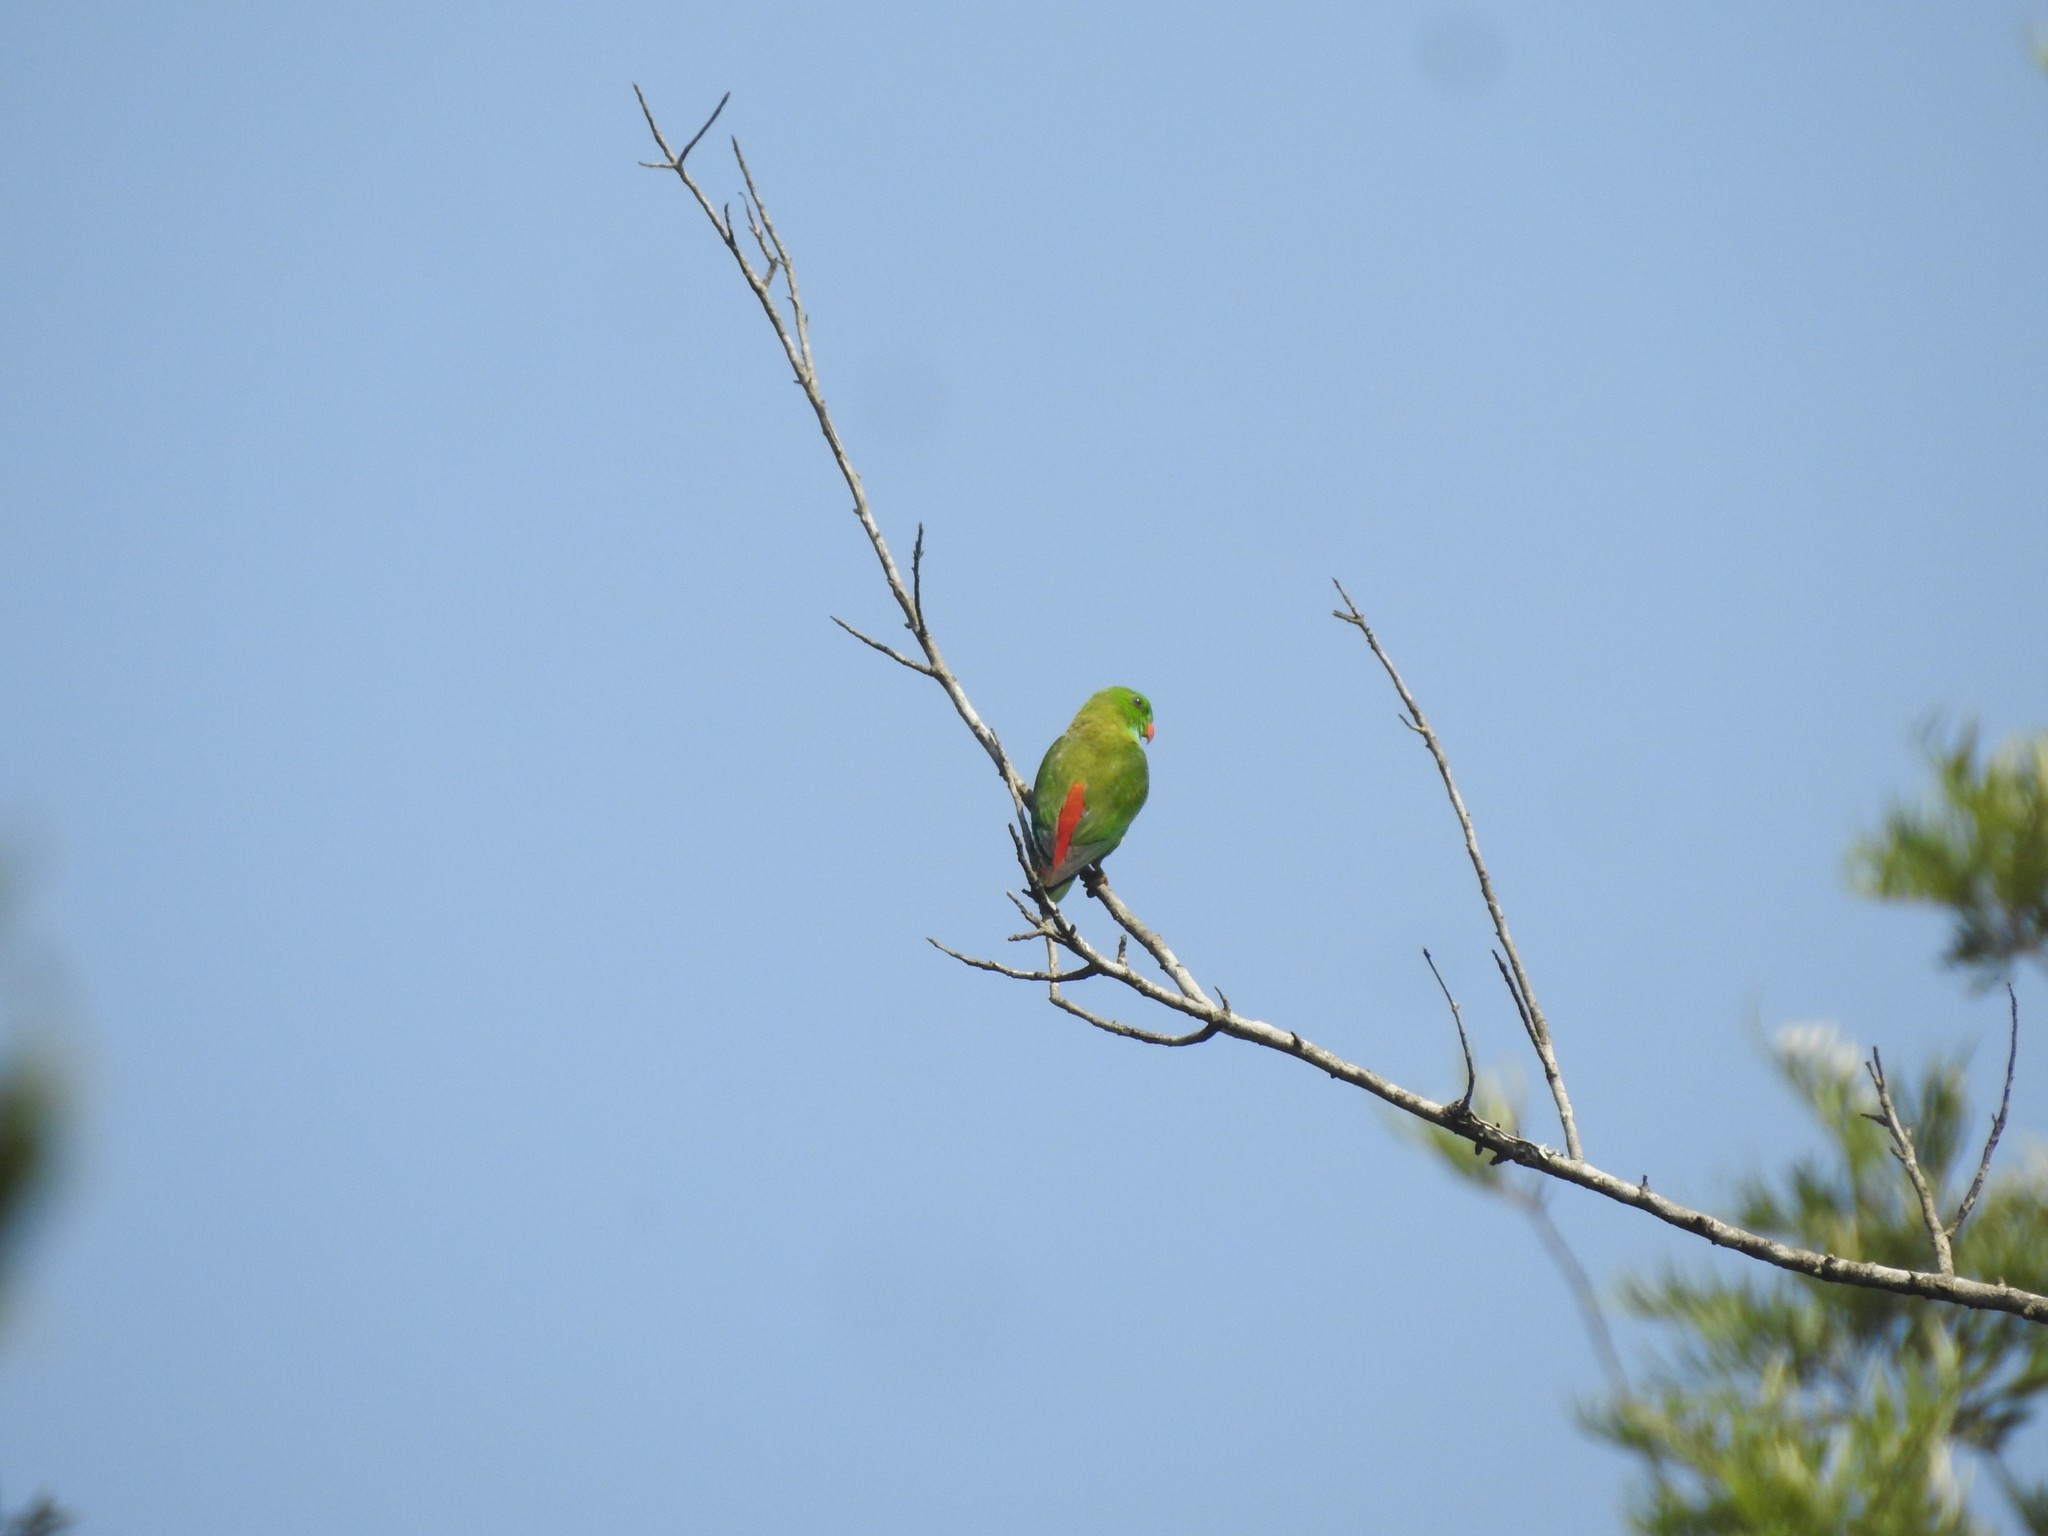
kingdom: Animalia
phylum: Chordata
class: Aves
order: Psittaciformes
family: Psittacidae
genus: Loriculus
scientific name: Loriculus vernalis
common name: Vernal hanging parrot
